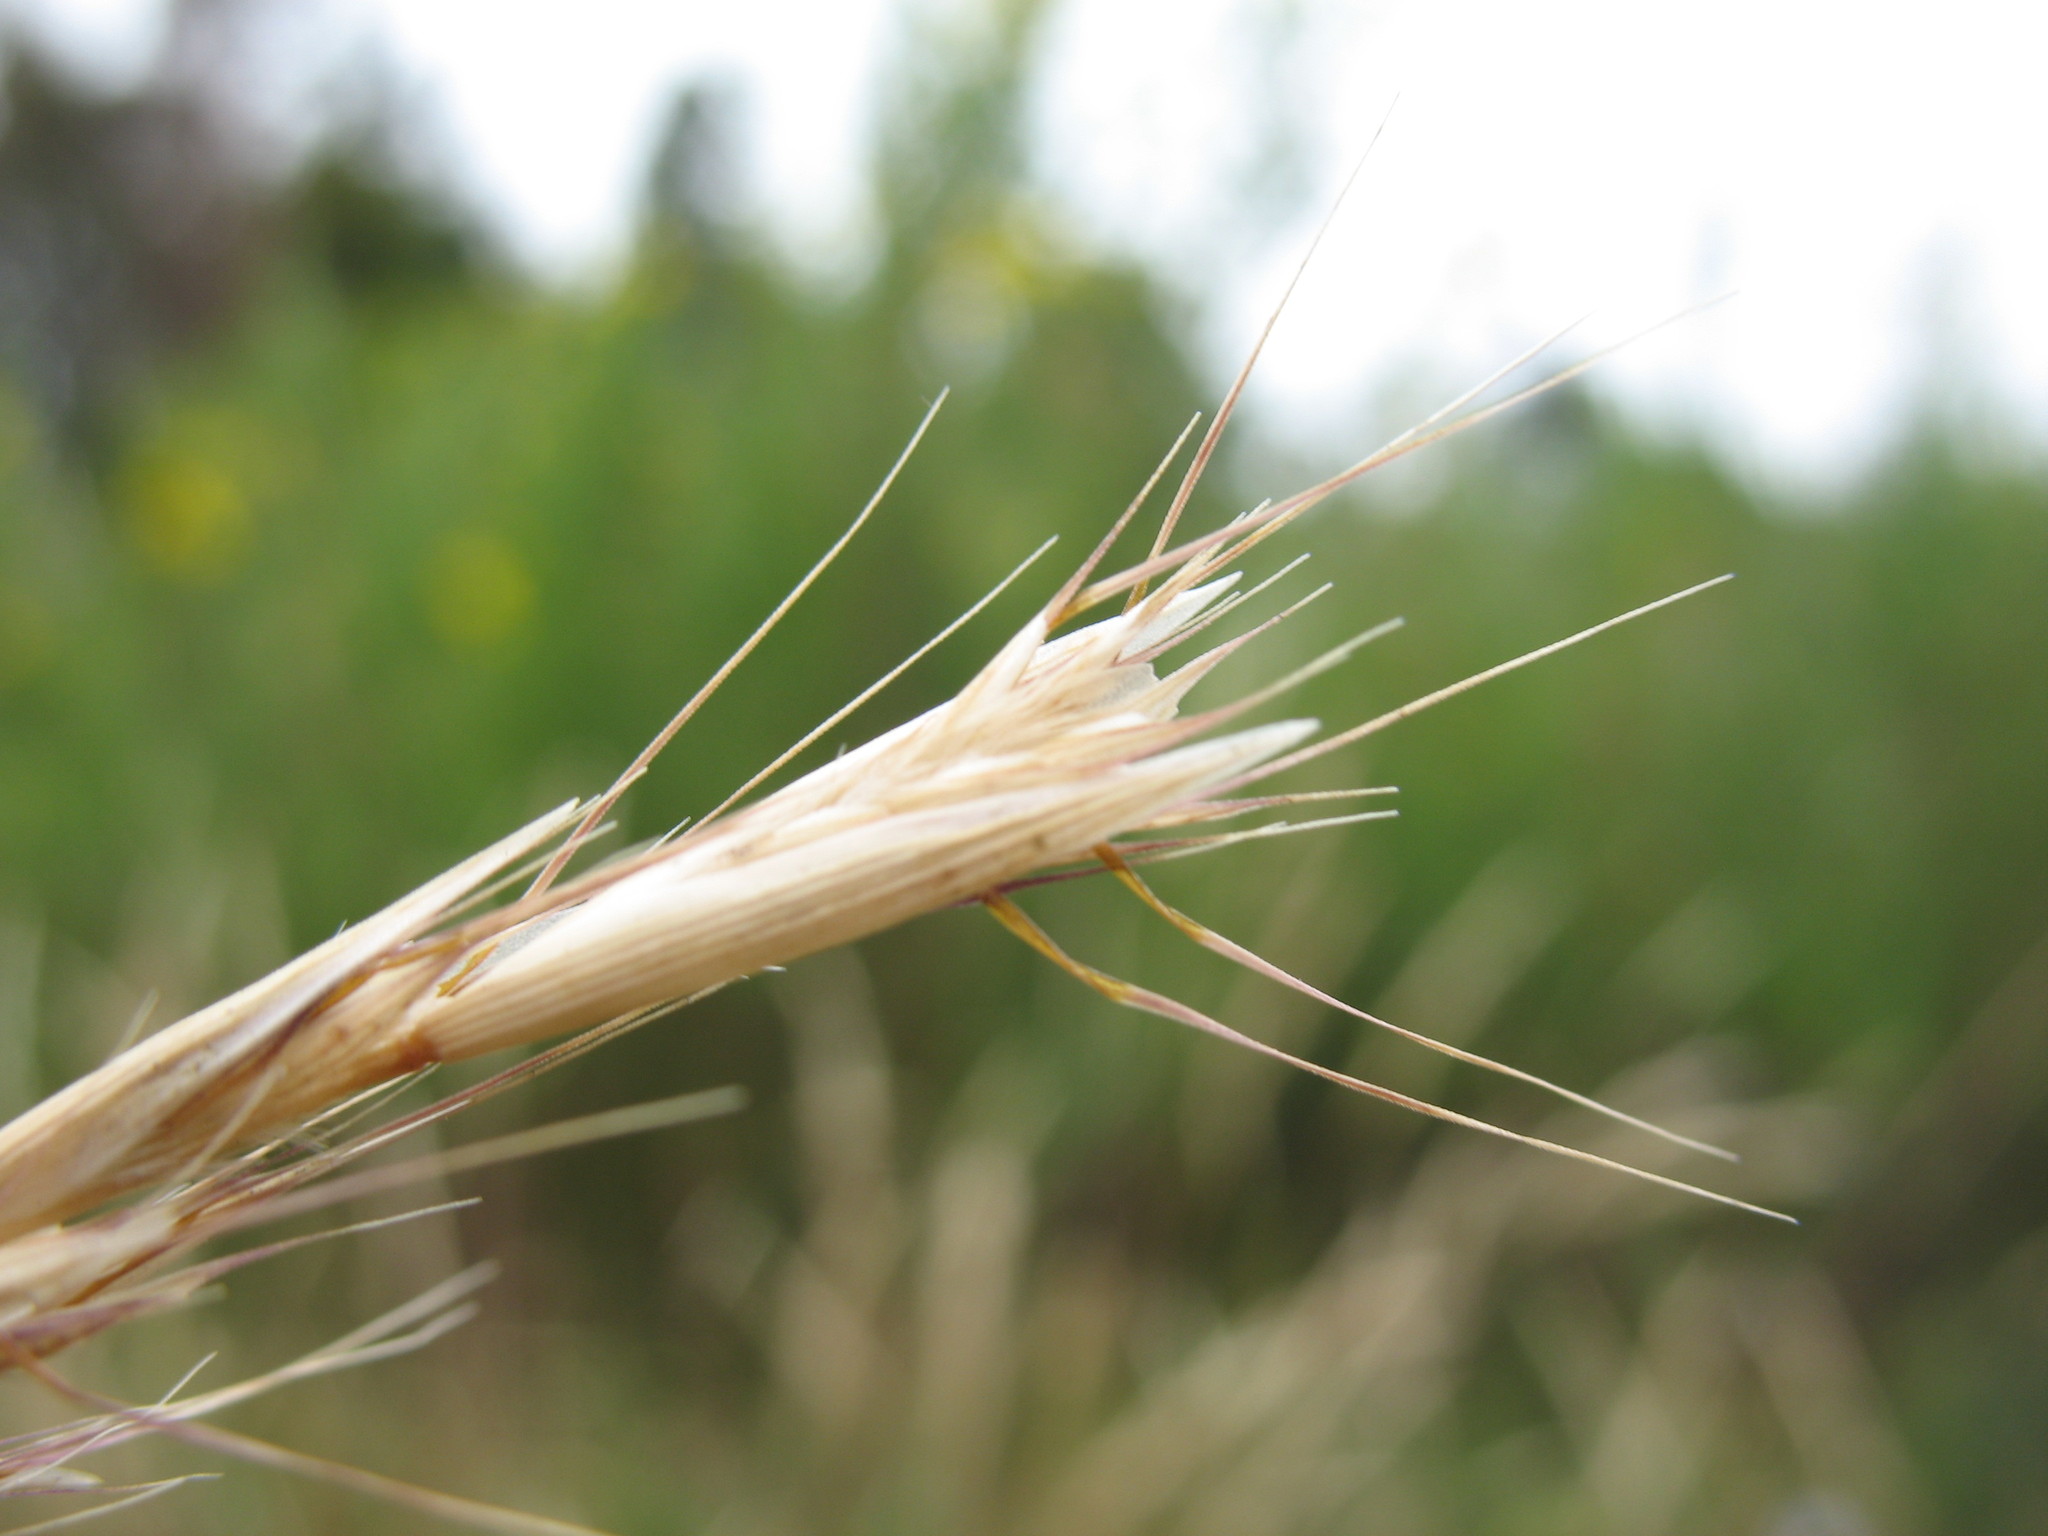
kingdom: Plantae
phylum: Tracheophyta
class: Liliopsida
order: Poales
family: Poaceae
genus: Rytidosperma
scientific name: Rytidosperma quirihuense
